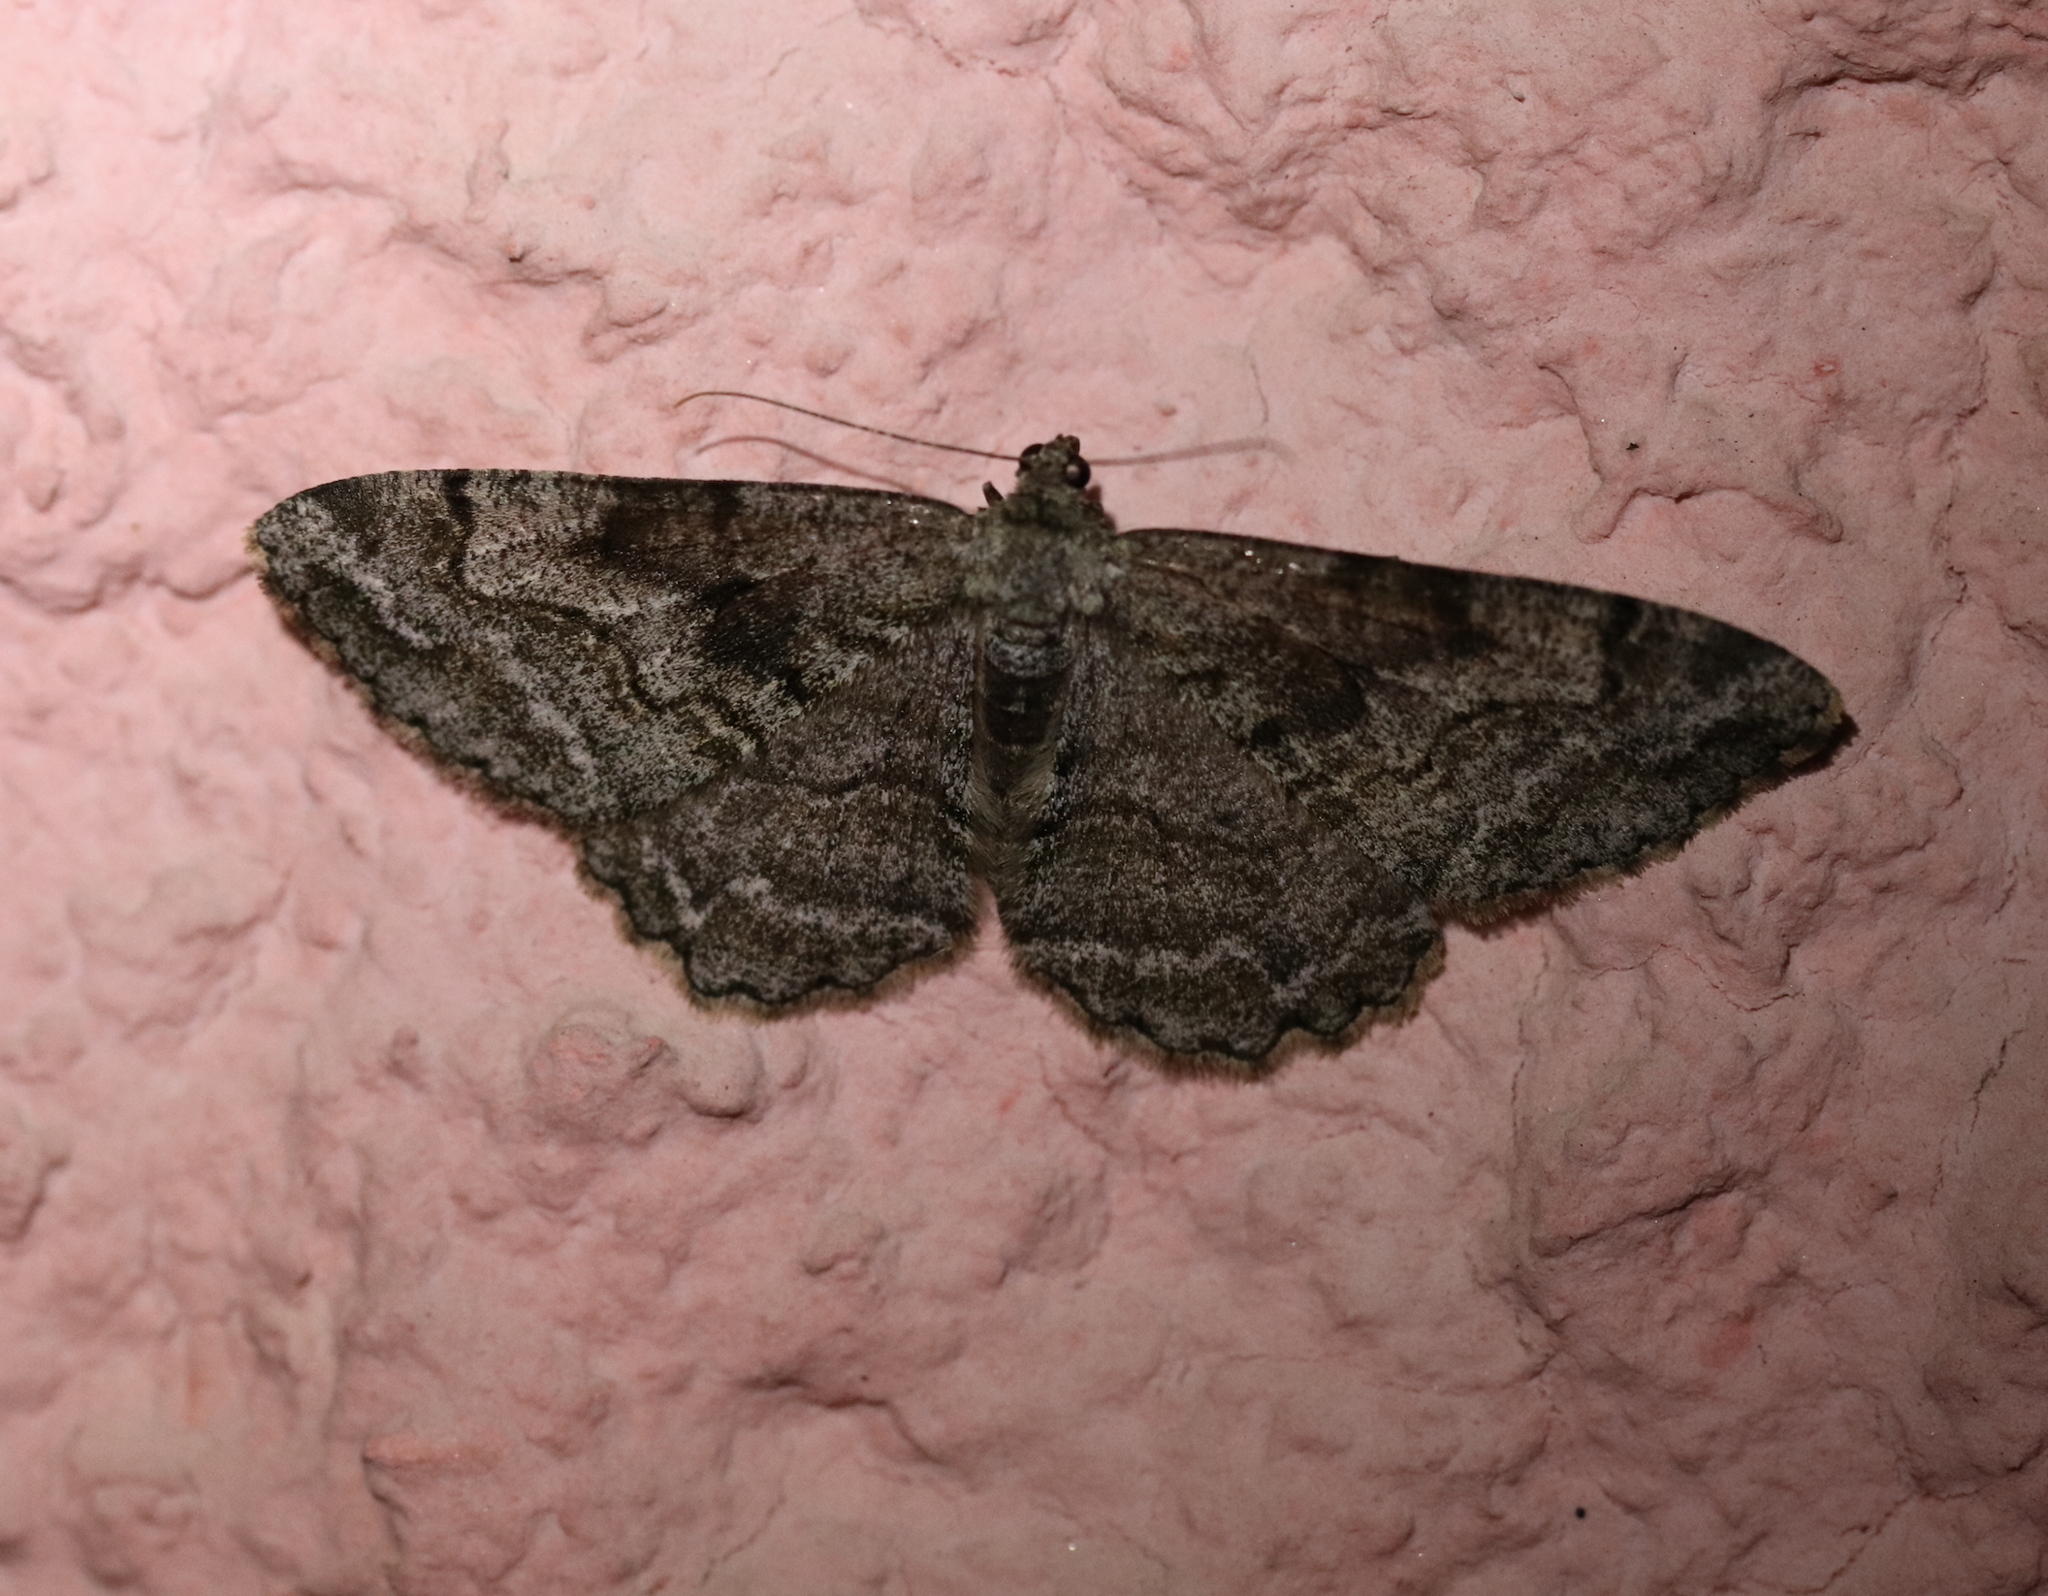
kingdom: Animalia
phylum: Arthropoda
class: Insecta
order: Lepidoptera
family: Geometridae
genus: Alcis
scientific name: Alcis repandata
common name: Mottled beauty
